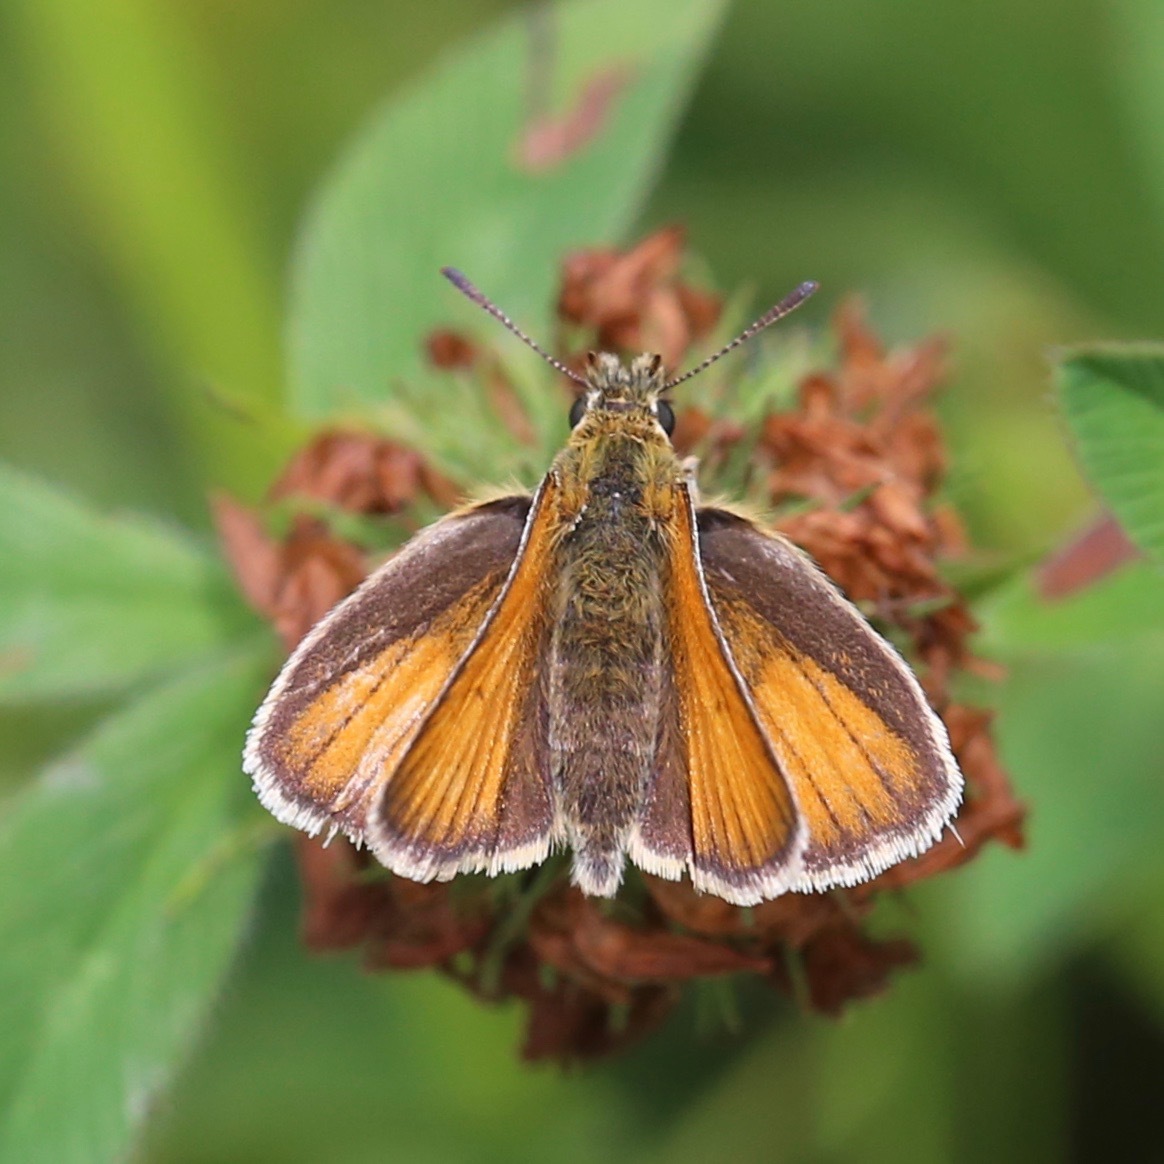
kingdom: Animalia
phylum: Arthropoda
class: Insecta
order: Lepidoptera
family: Hesperiidae
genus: Thymelicus
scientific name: Thymelicus lineola
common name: Essex skipper
